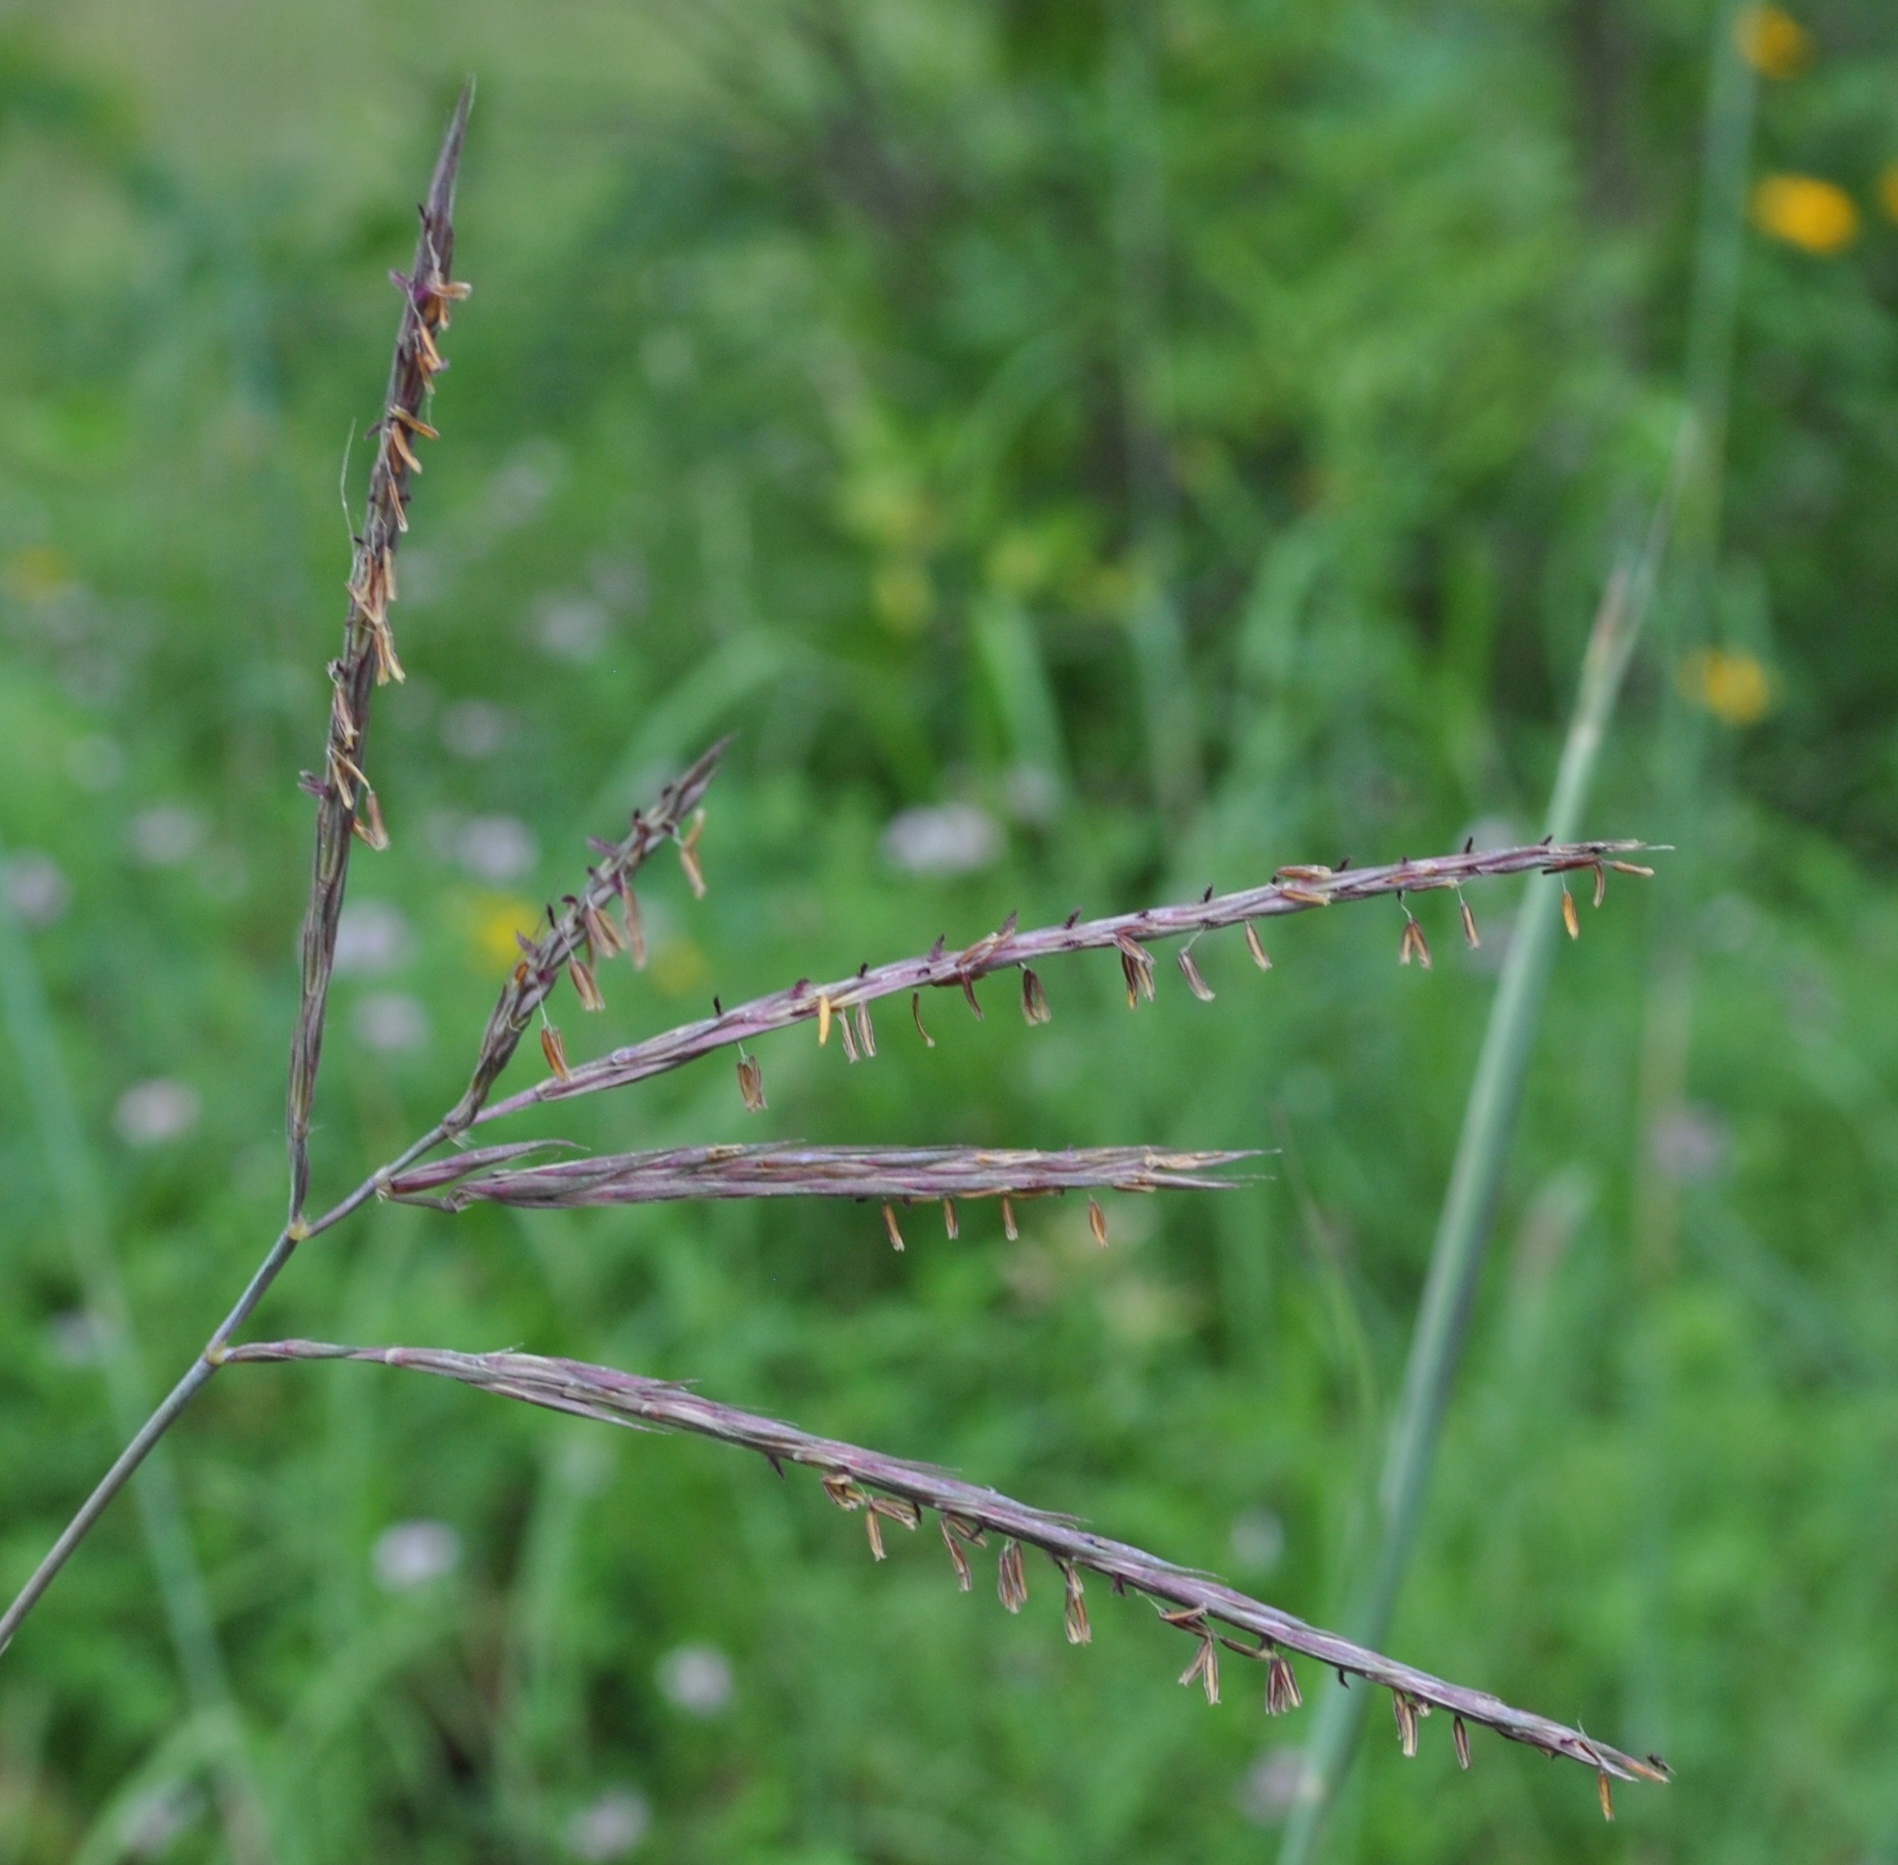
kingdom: Plantae
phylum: Tracheophyta
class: Liliopsida
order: Poales
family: Poaceae
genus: Andropogon
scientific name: Andropogon gerardi
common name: Big bluestem
